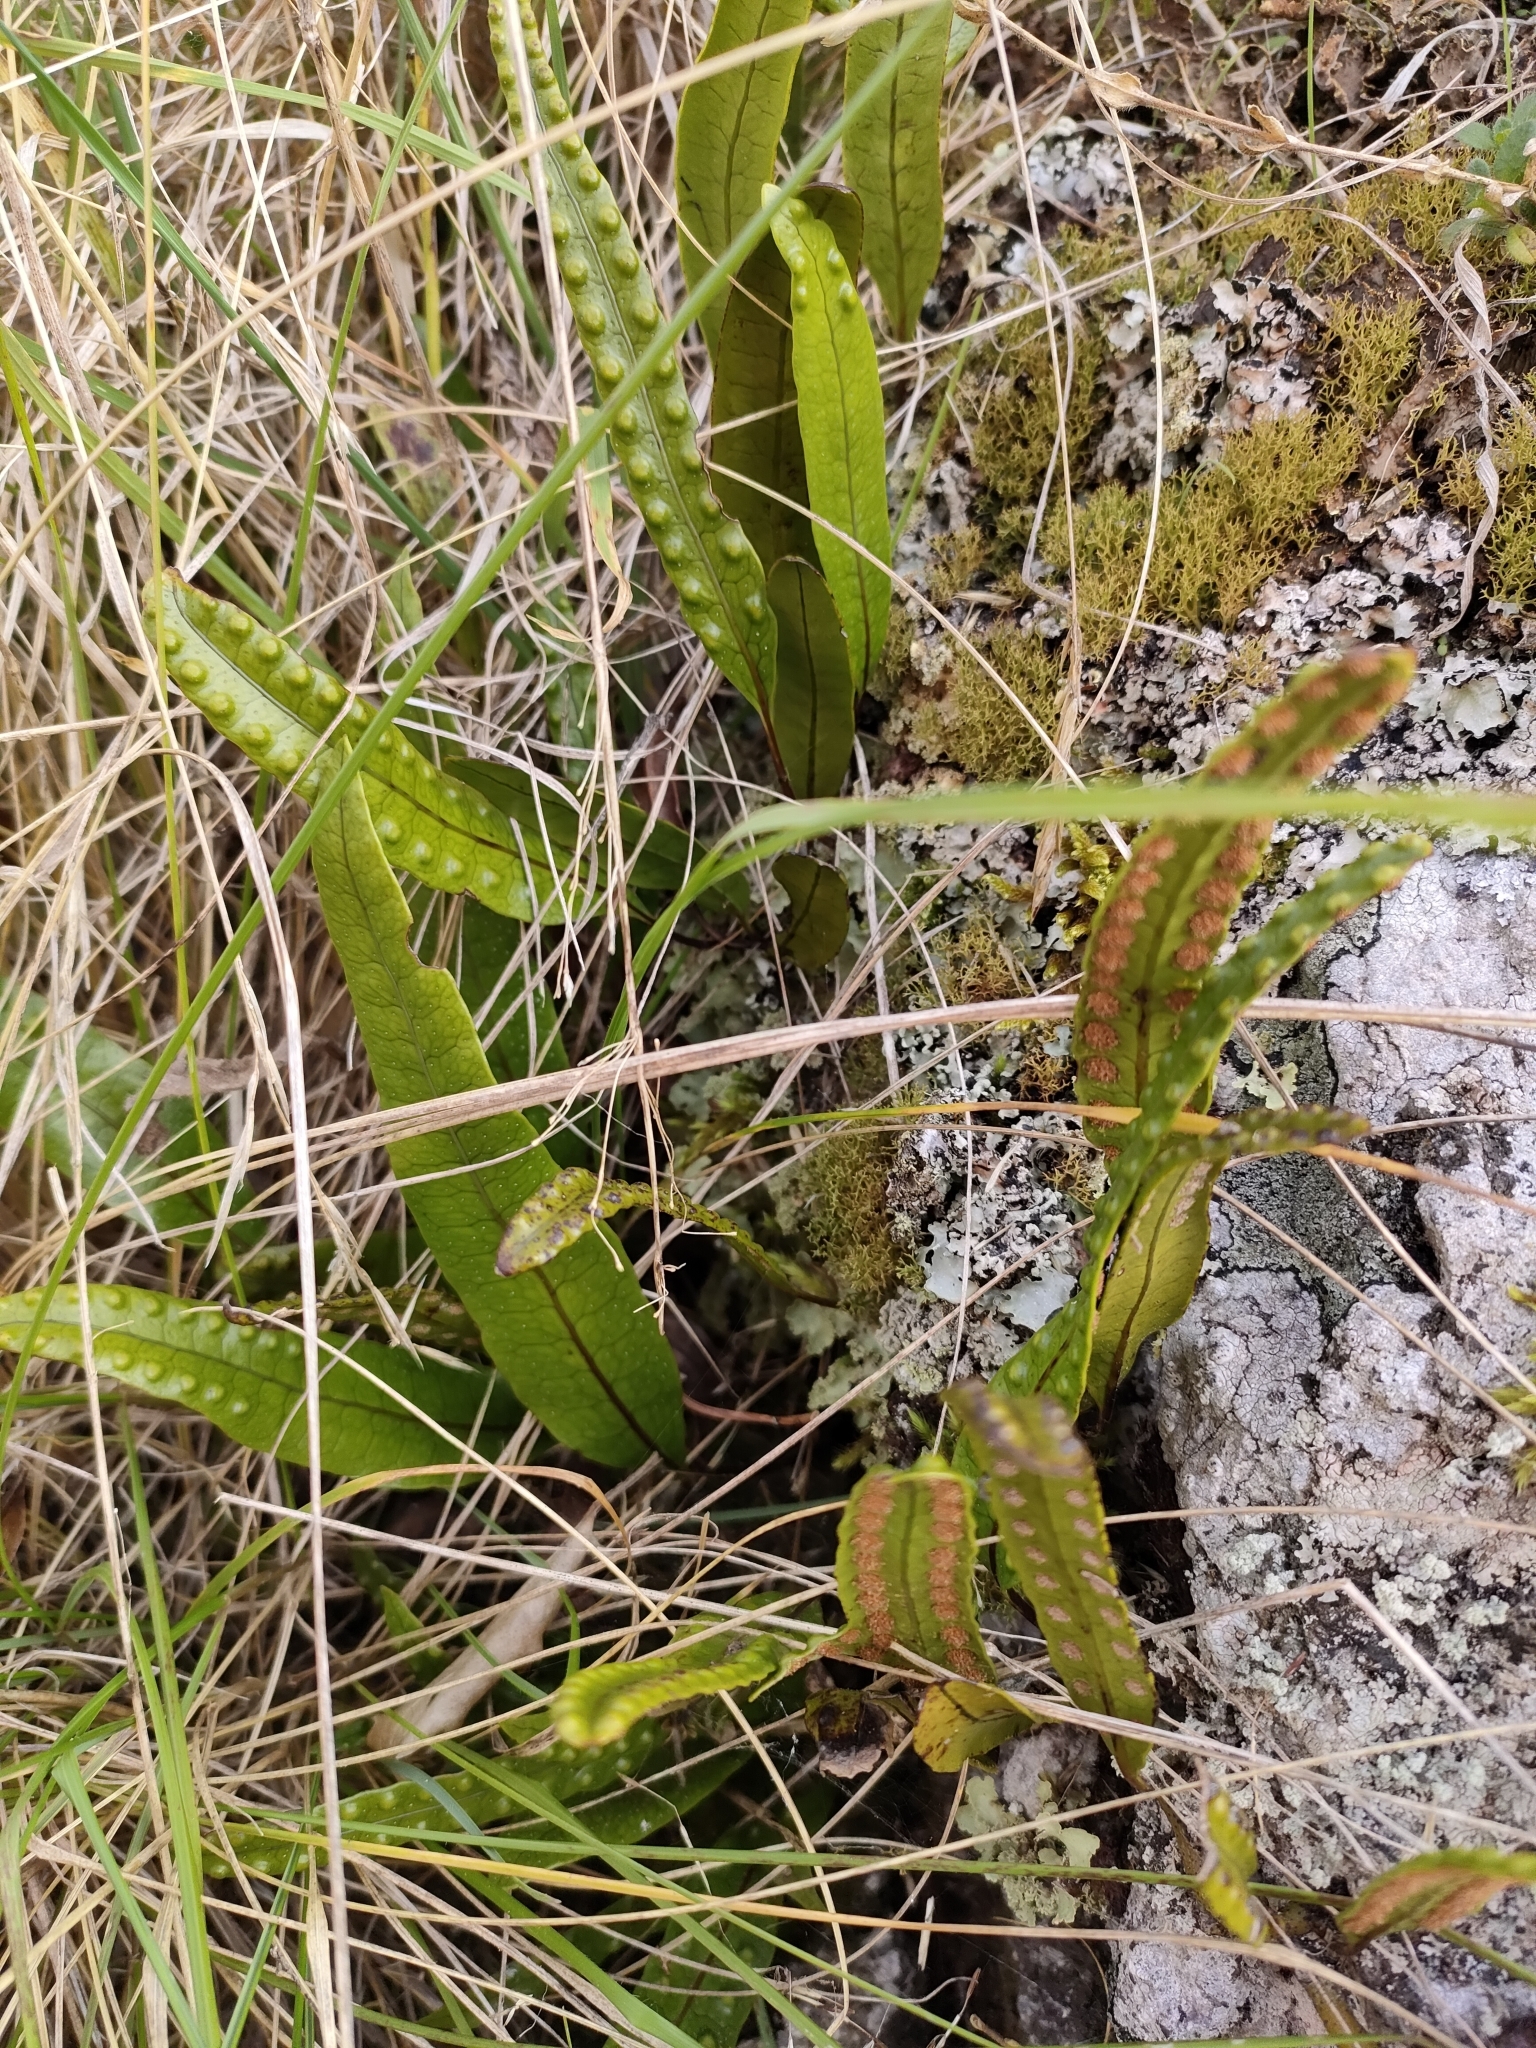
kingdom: Plantae
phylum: Tracheophyta
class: Polypodiopsida
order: Polypodiales
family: Polypodiaceae
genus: Lecanopteris
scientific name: Lecanopteris pustulata
